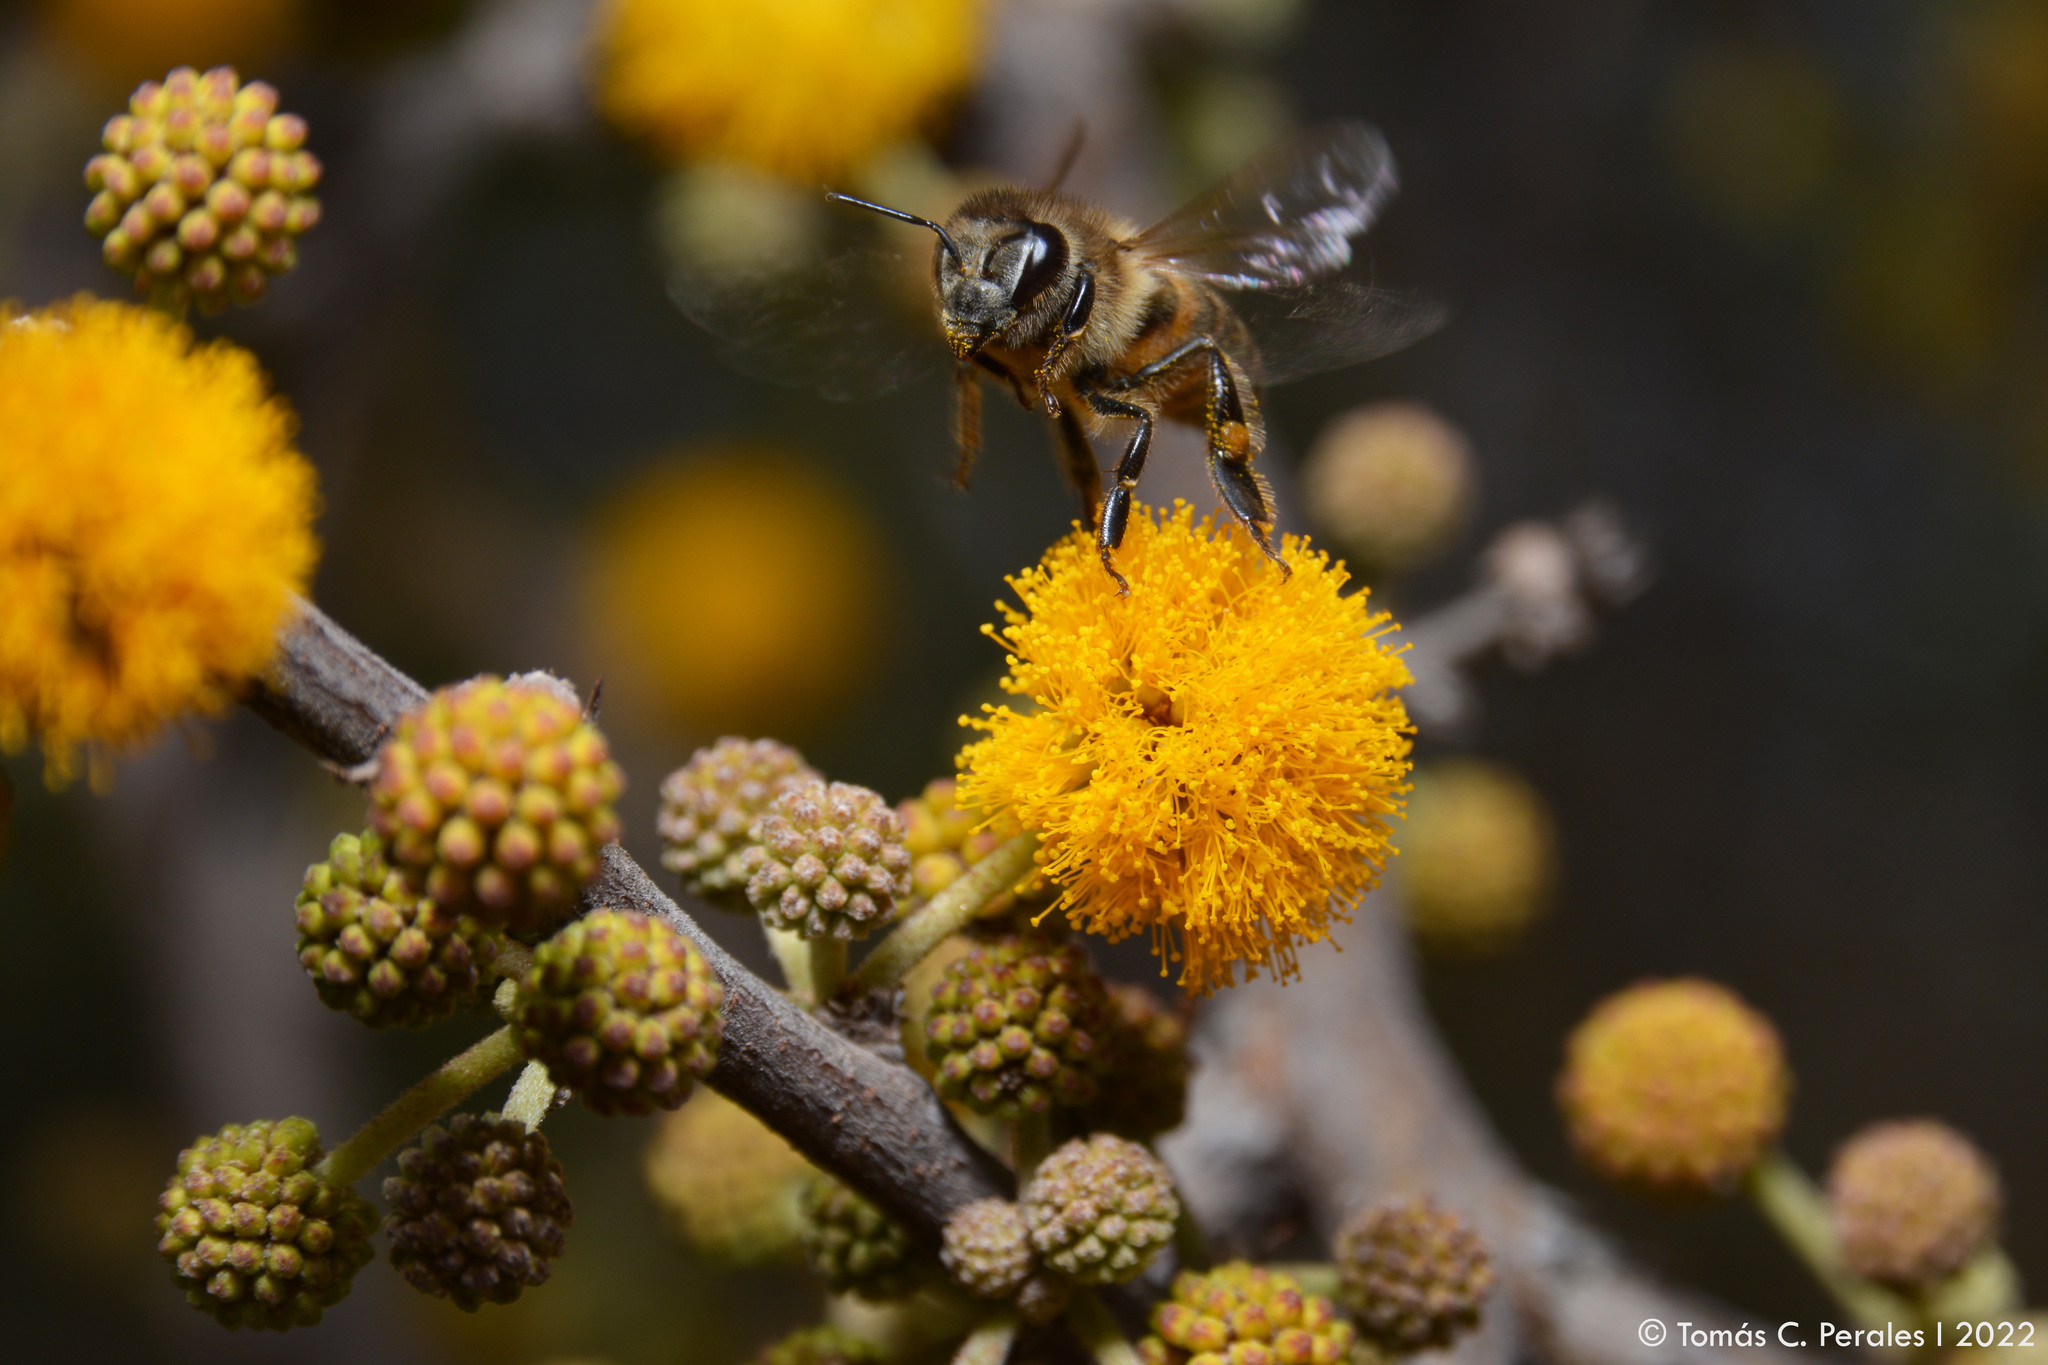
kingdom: Animalia
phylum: Arthropoda
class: Insecta
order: Hymenoptera
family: Apidae
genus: Apis
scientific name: Apis mellifera
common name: Honey bee
